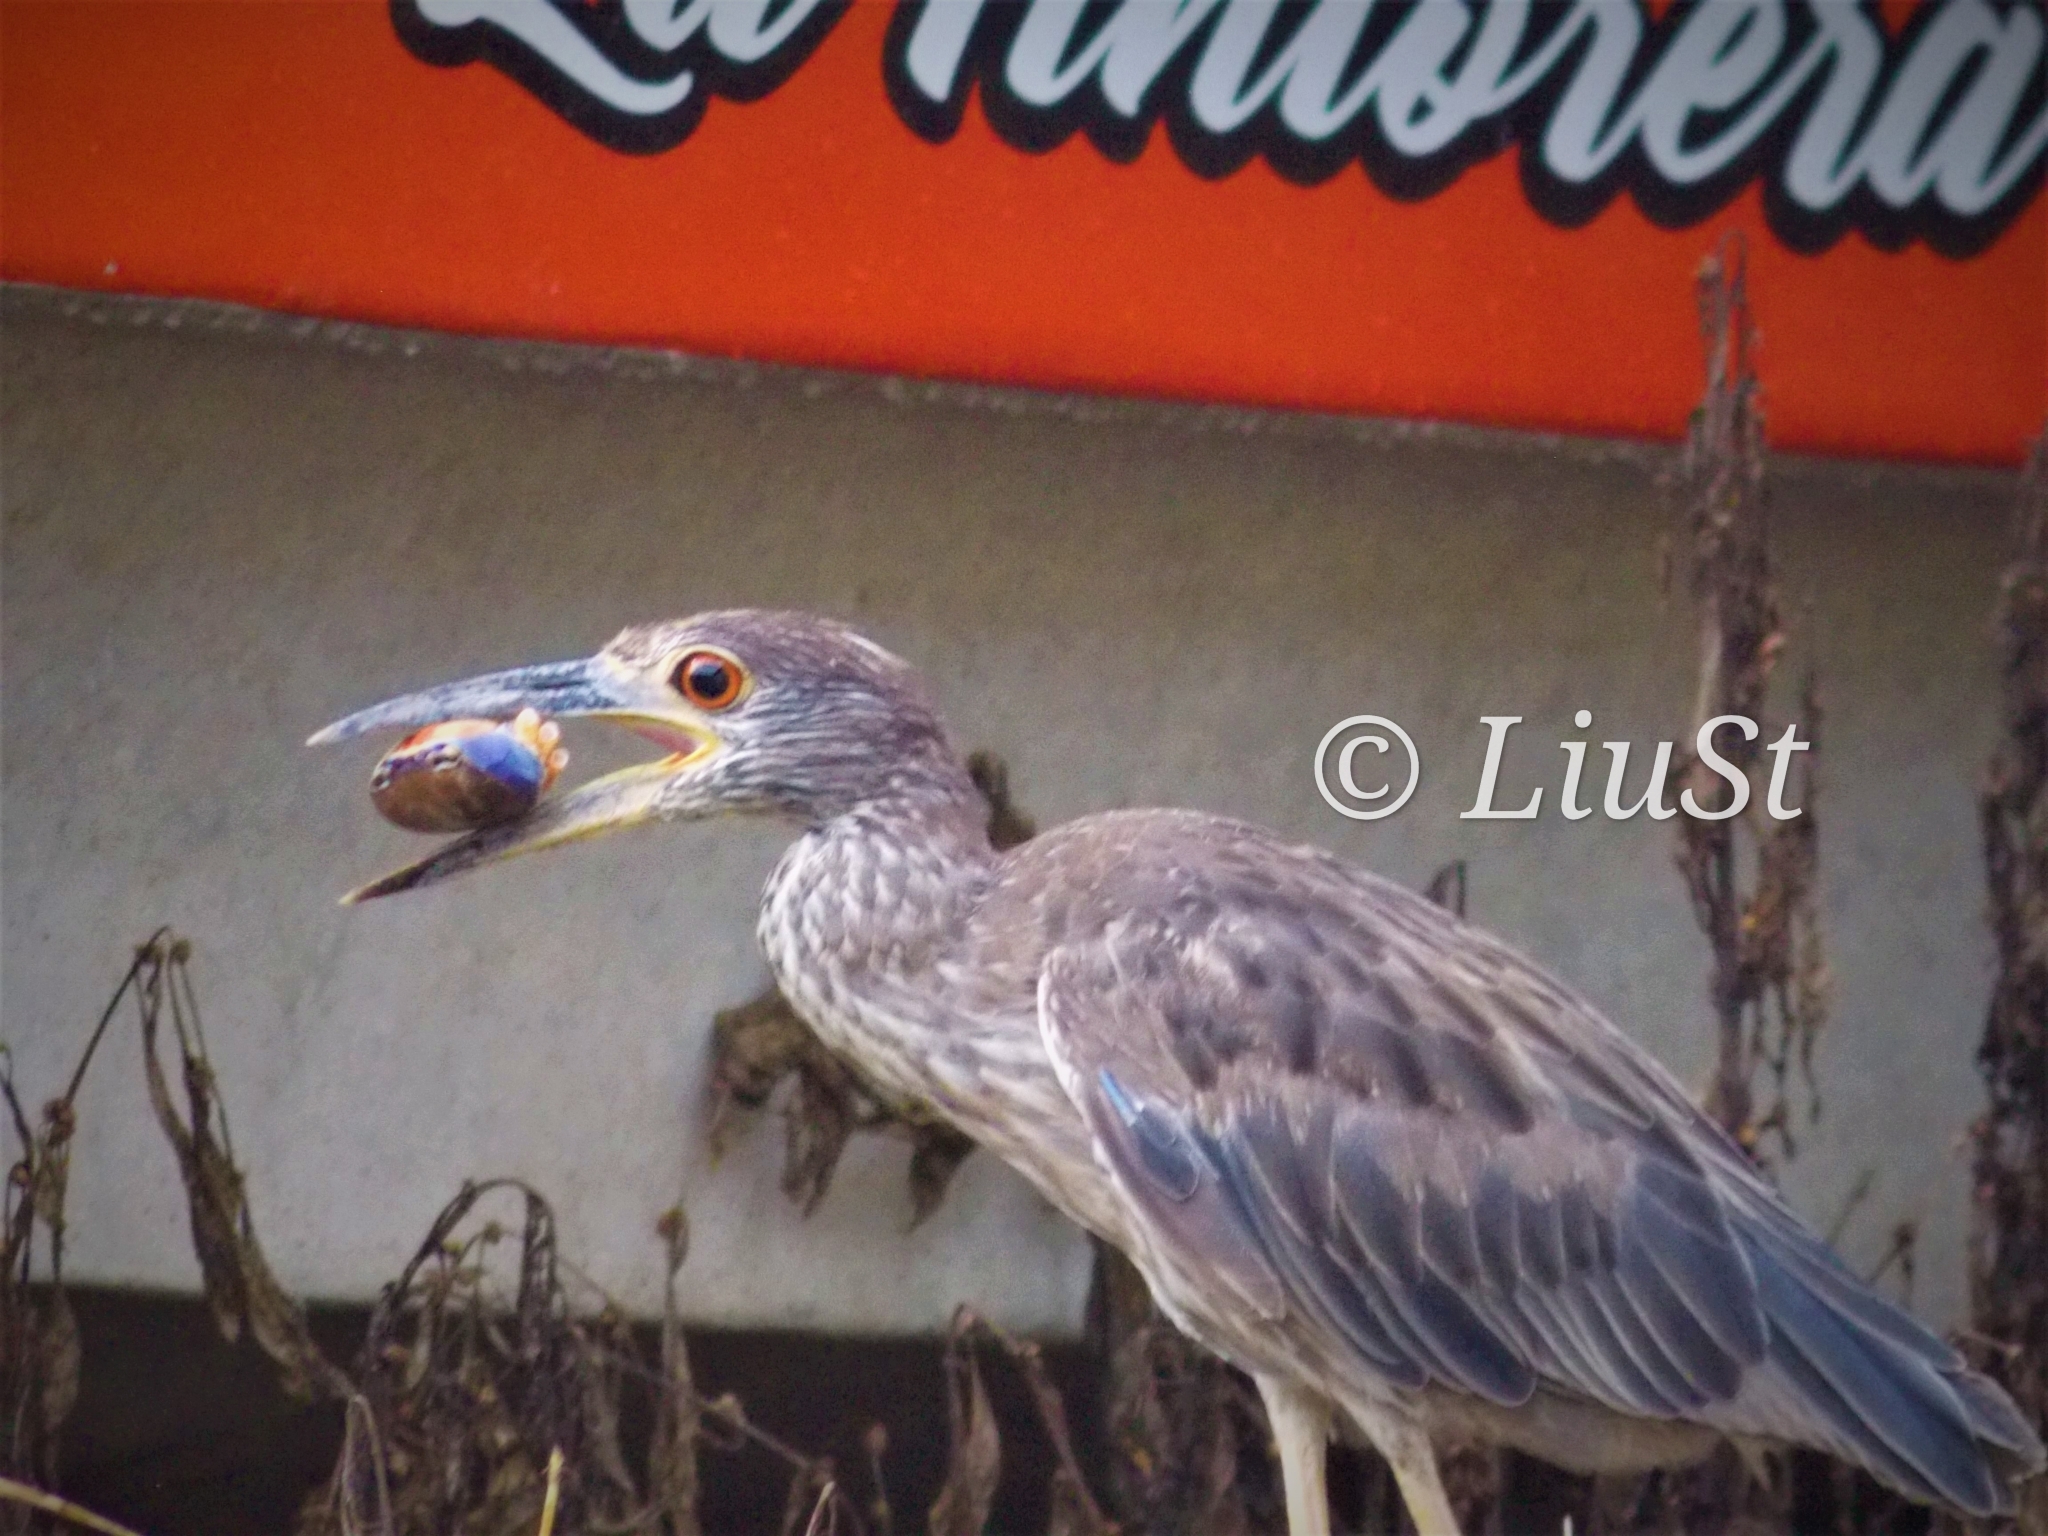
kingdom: Animalia
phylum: Chordata
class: Aves
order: Pelecaniformes
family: Ardeidae
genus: Nyctanassa
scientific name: Nyctanassa violacea
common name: Yellow-crowned night heron
